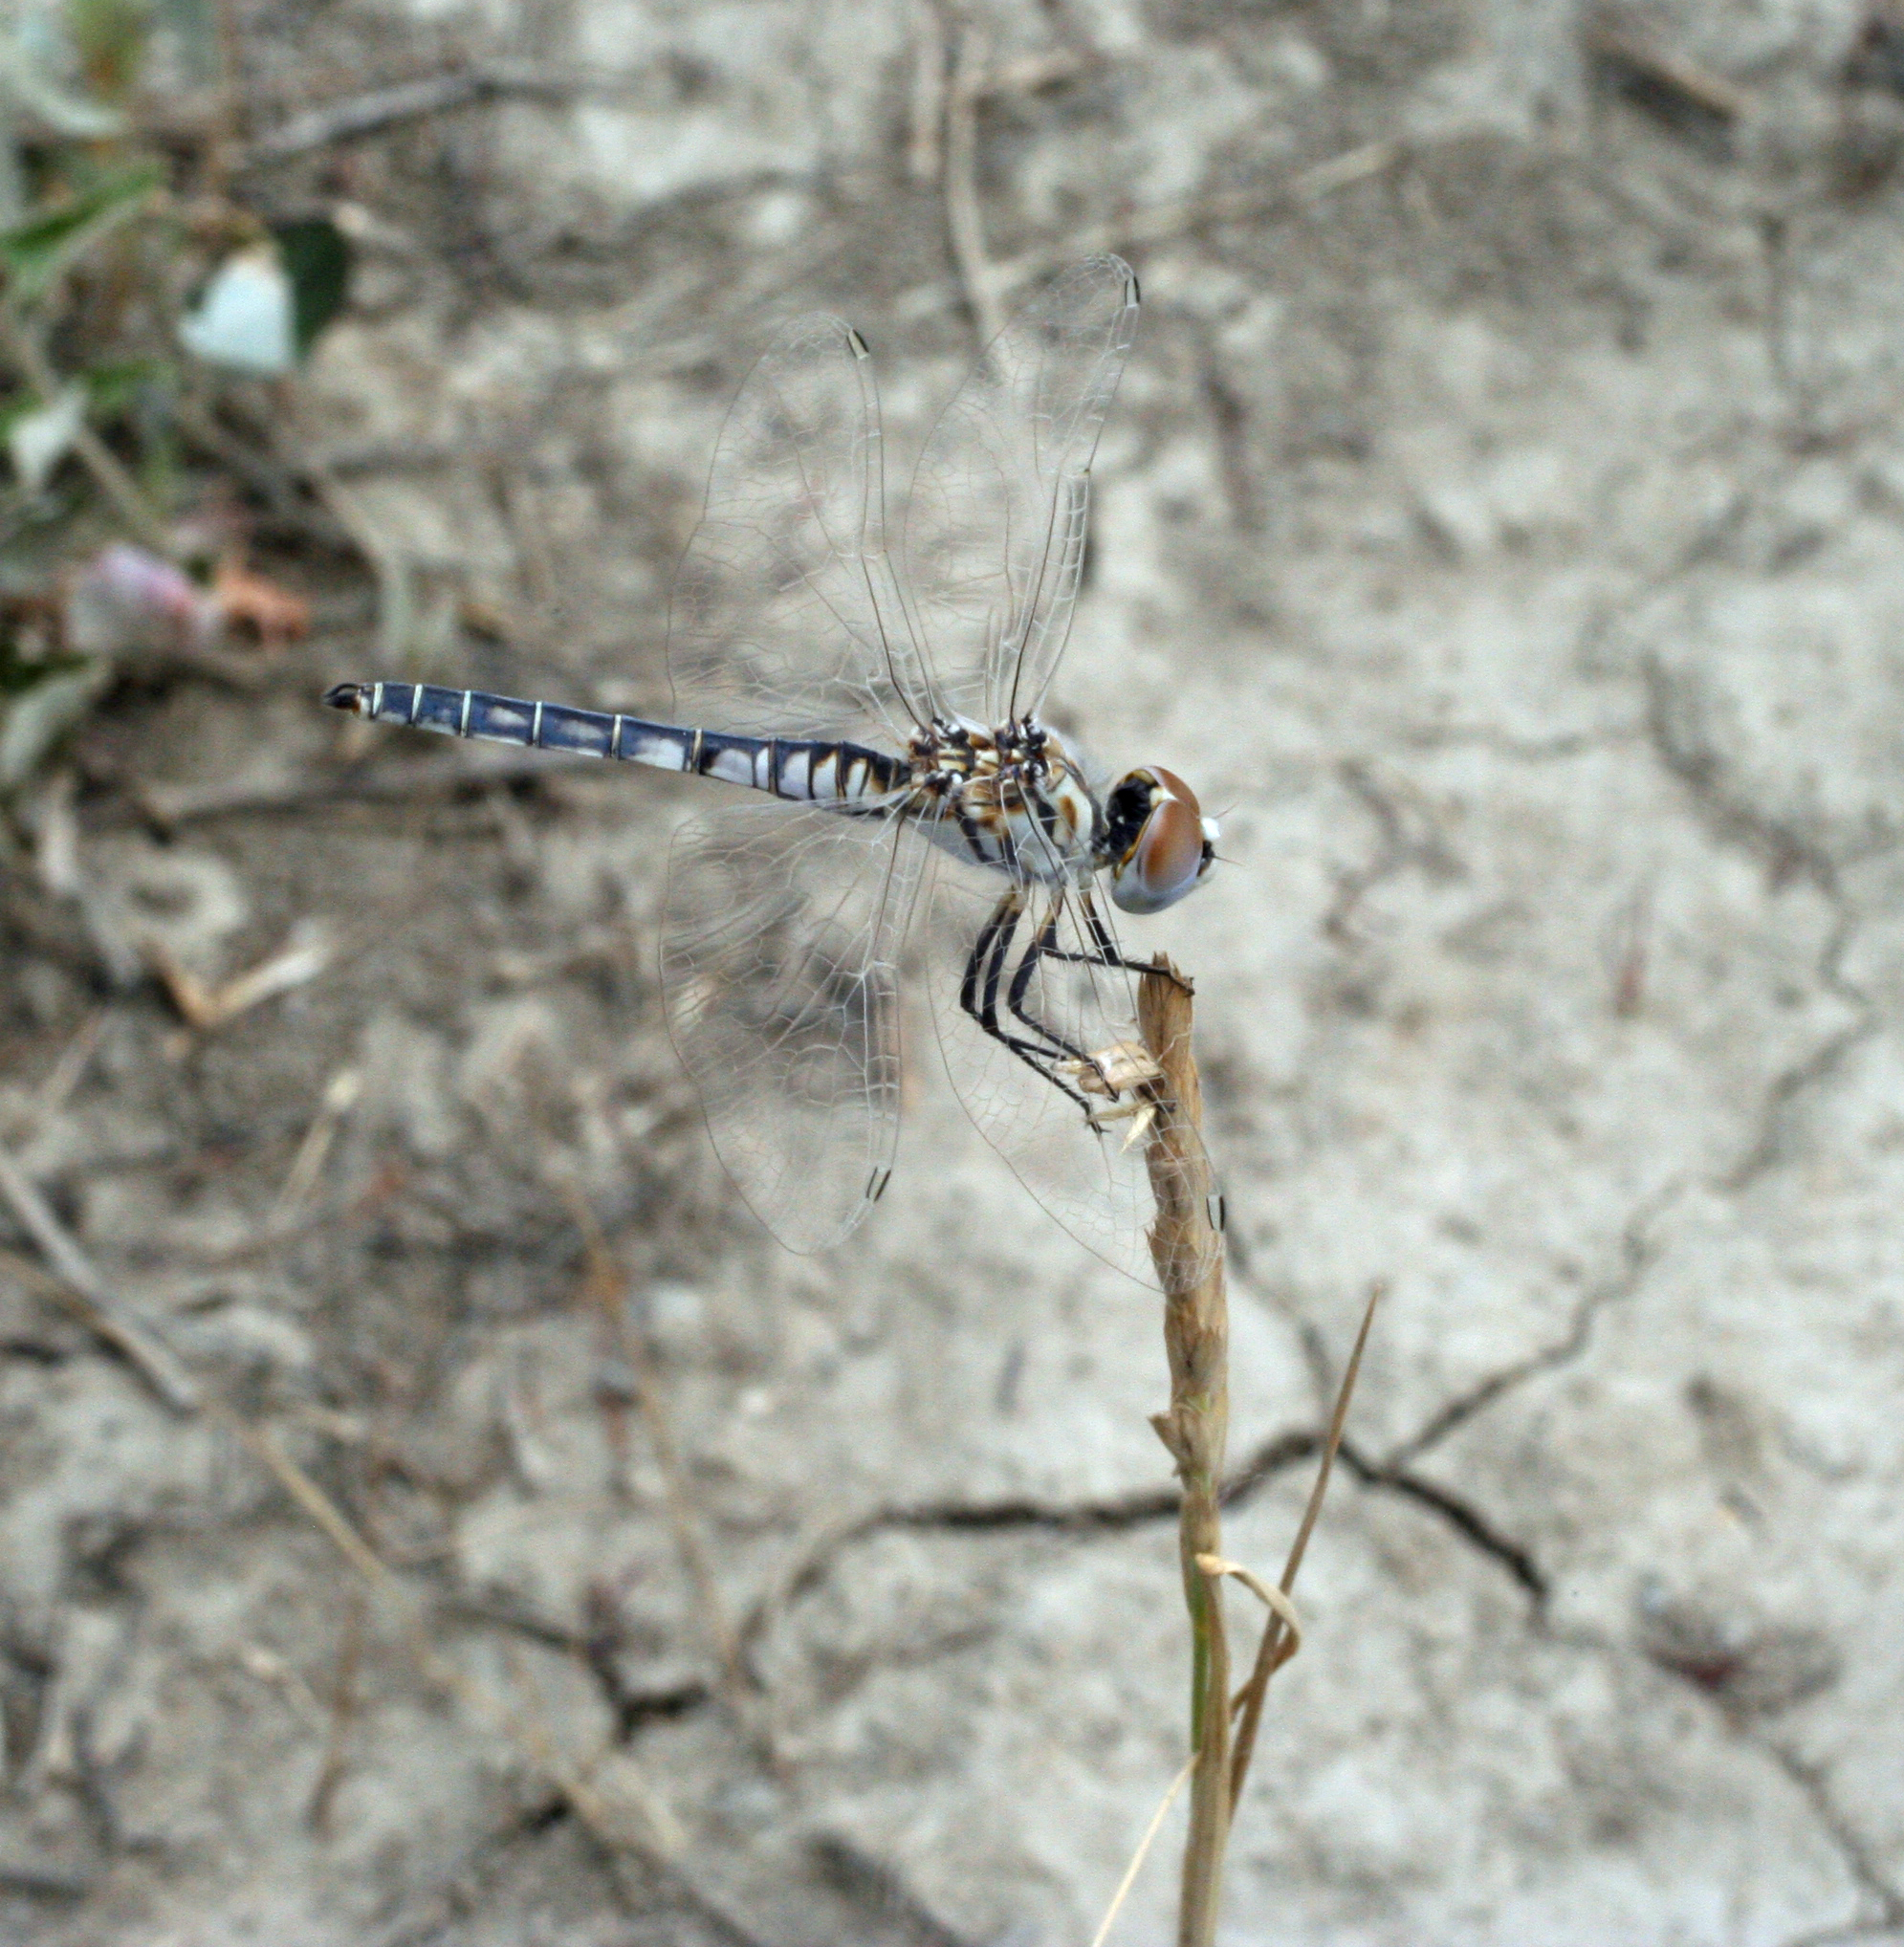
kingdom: Animalia
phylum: Arthropoda
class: Insecta
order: Odonata
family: Libellulidae
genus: Selysiothemis
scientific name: Selysiothemis nigra
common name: Black pennant
